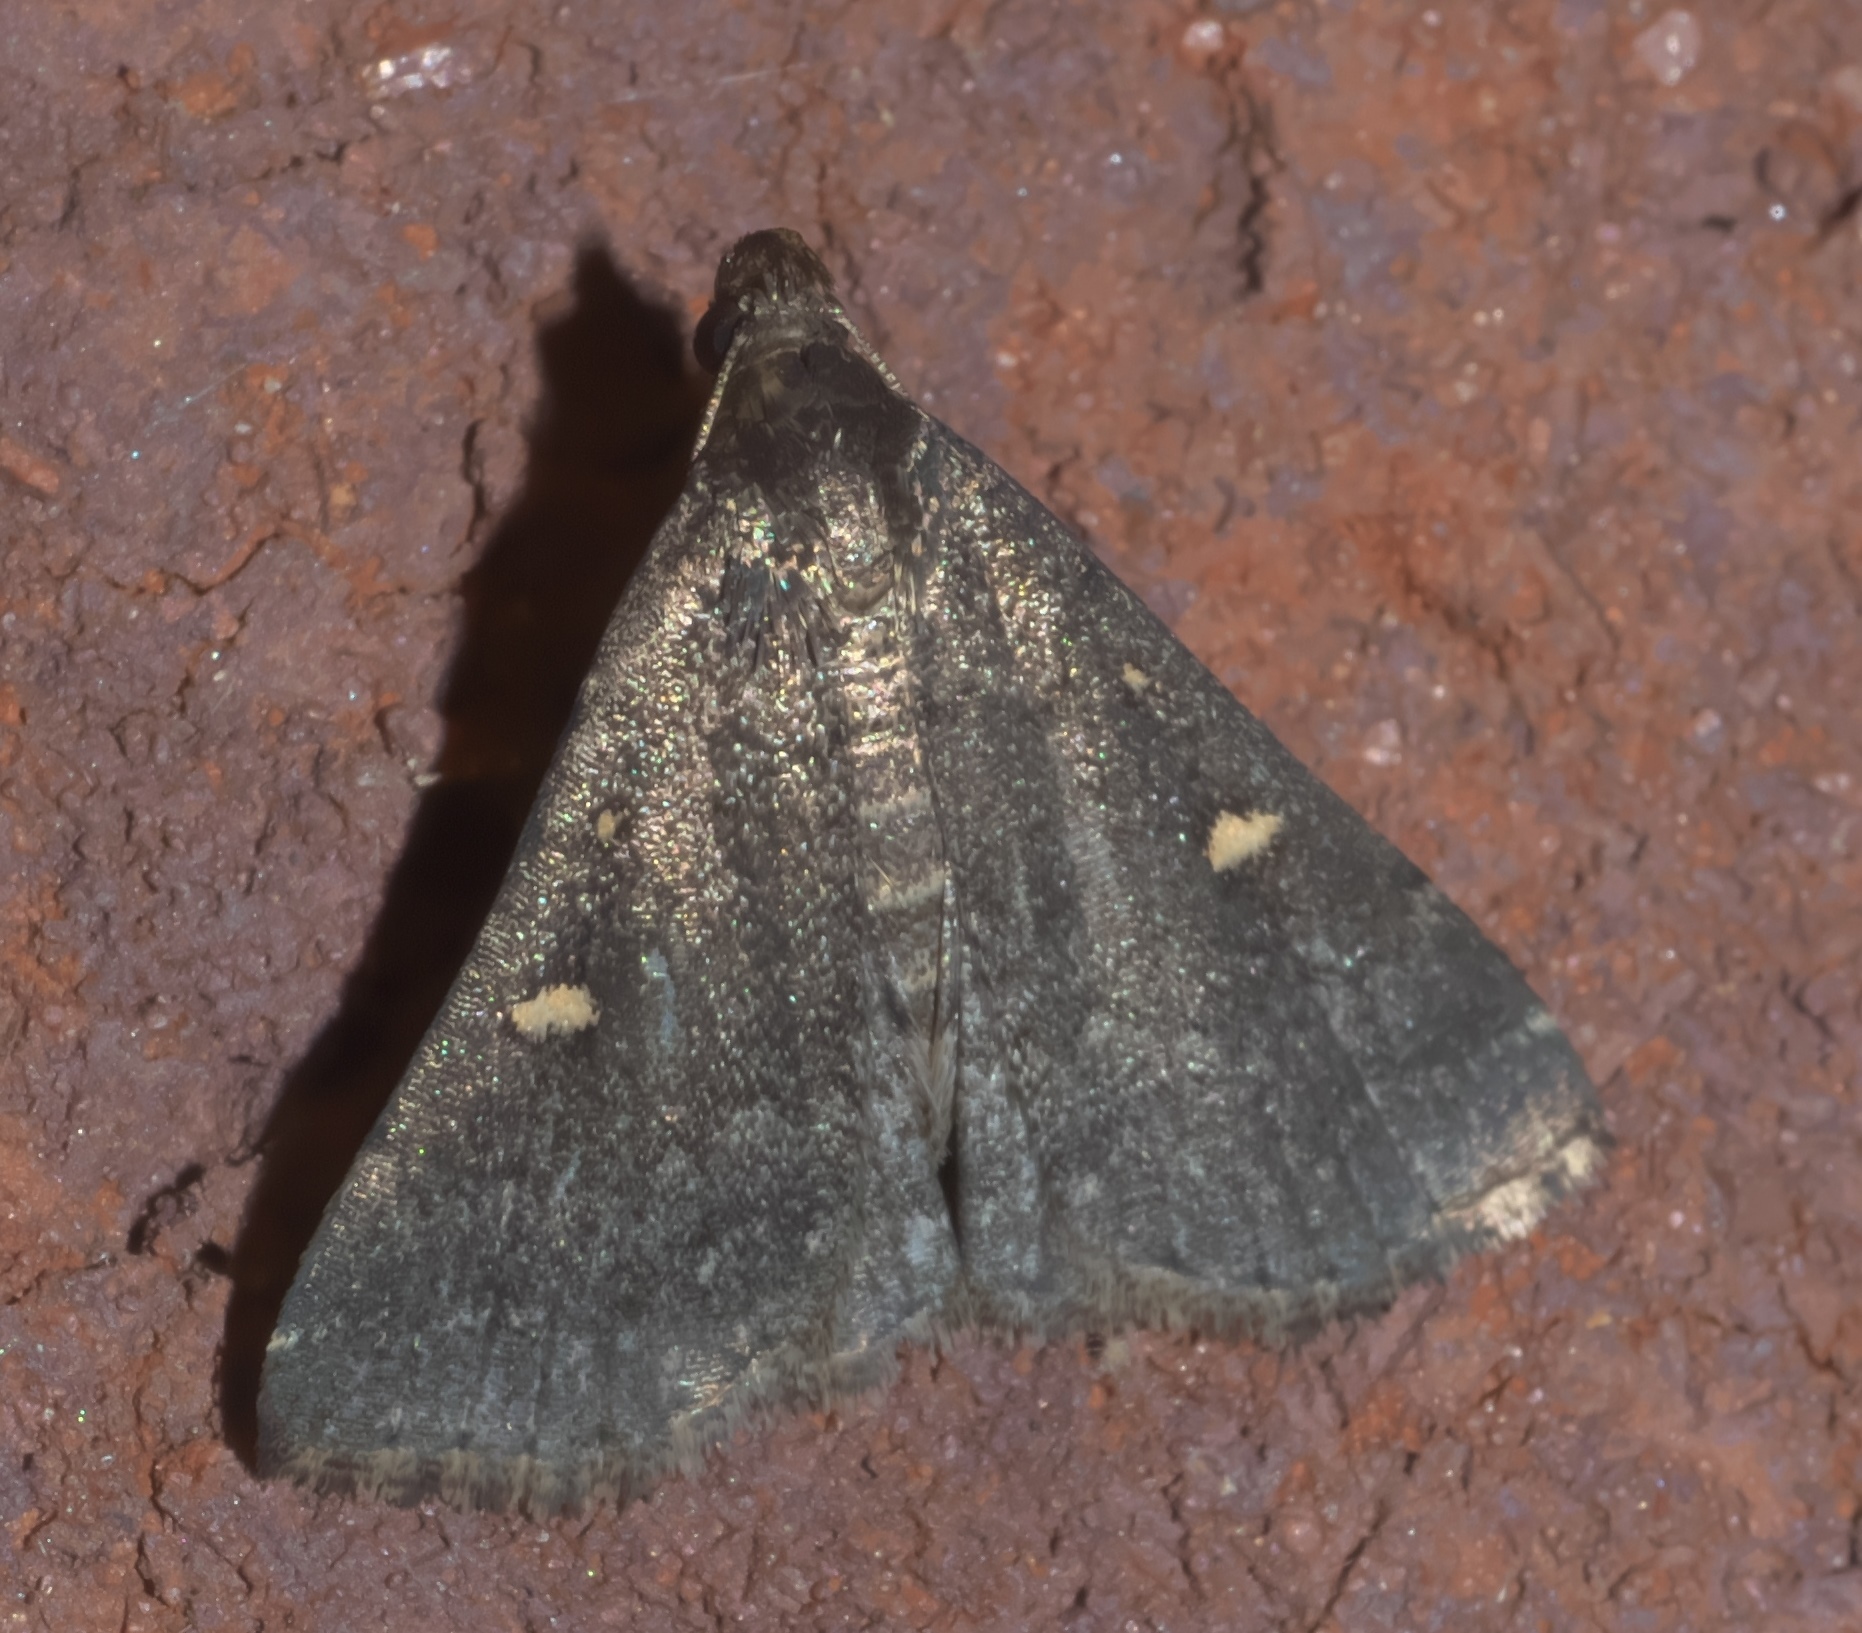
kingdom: Animalia
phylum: Arthropoda
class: Insecta
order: Lepidoptera
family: Erebidae
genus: Tetanolita
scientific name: Tetanolita mynesalis
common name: Smoky tetanolita moth
